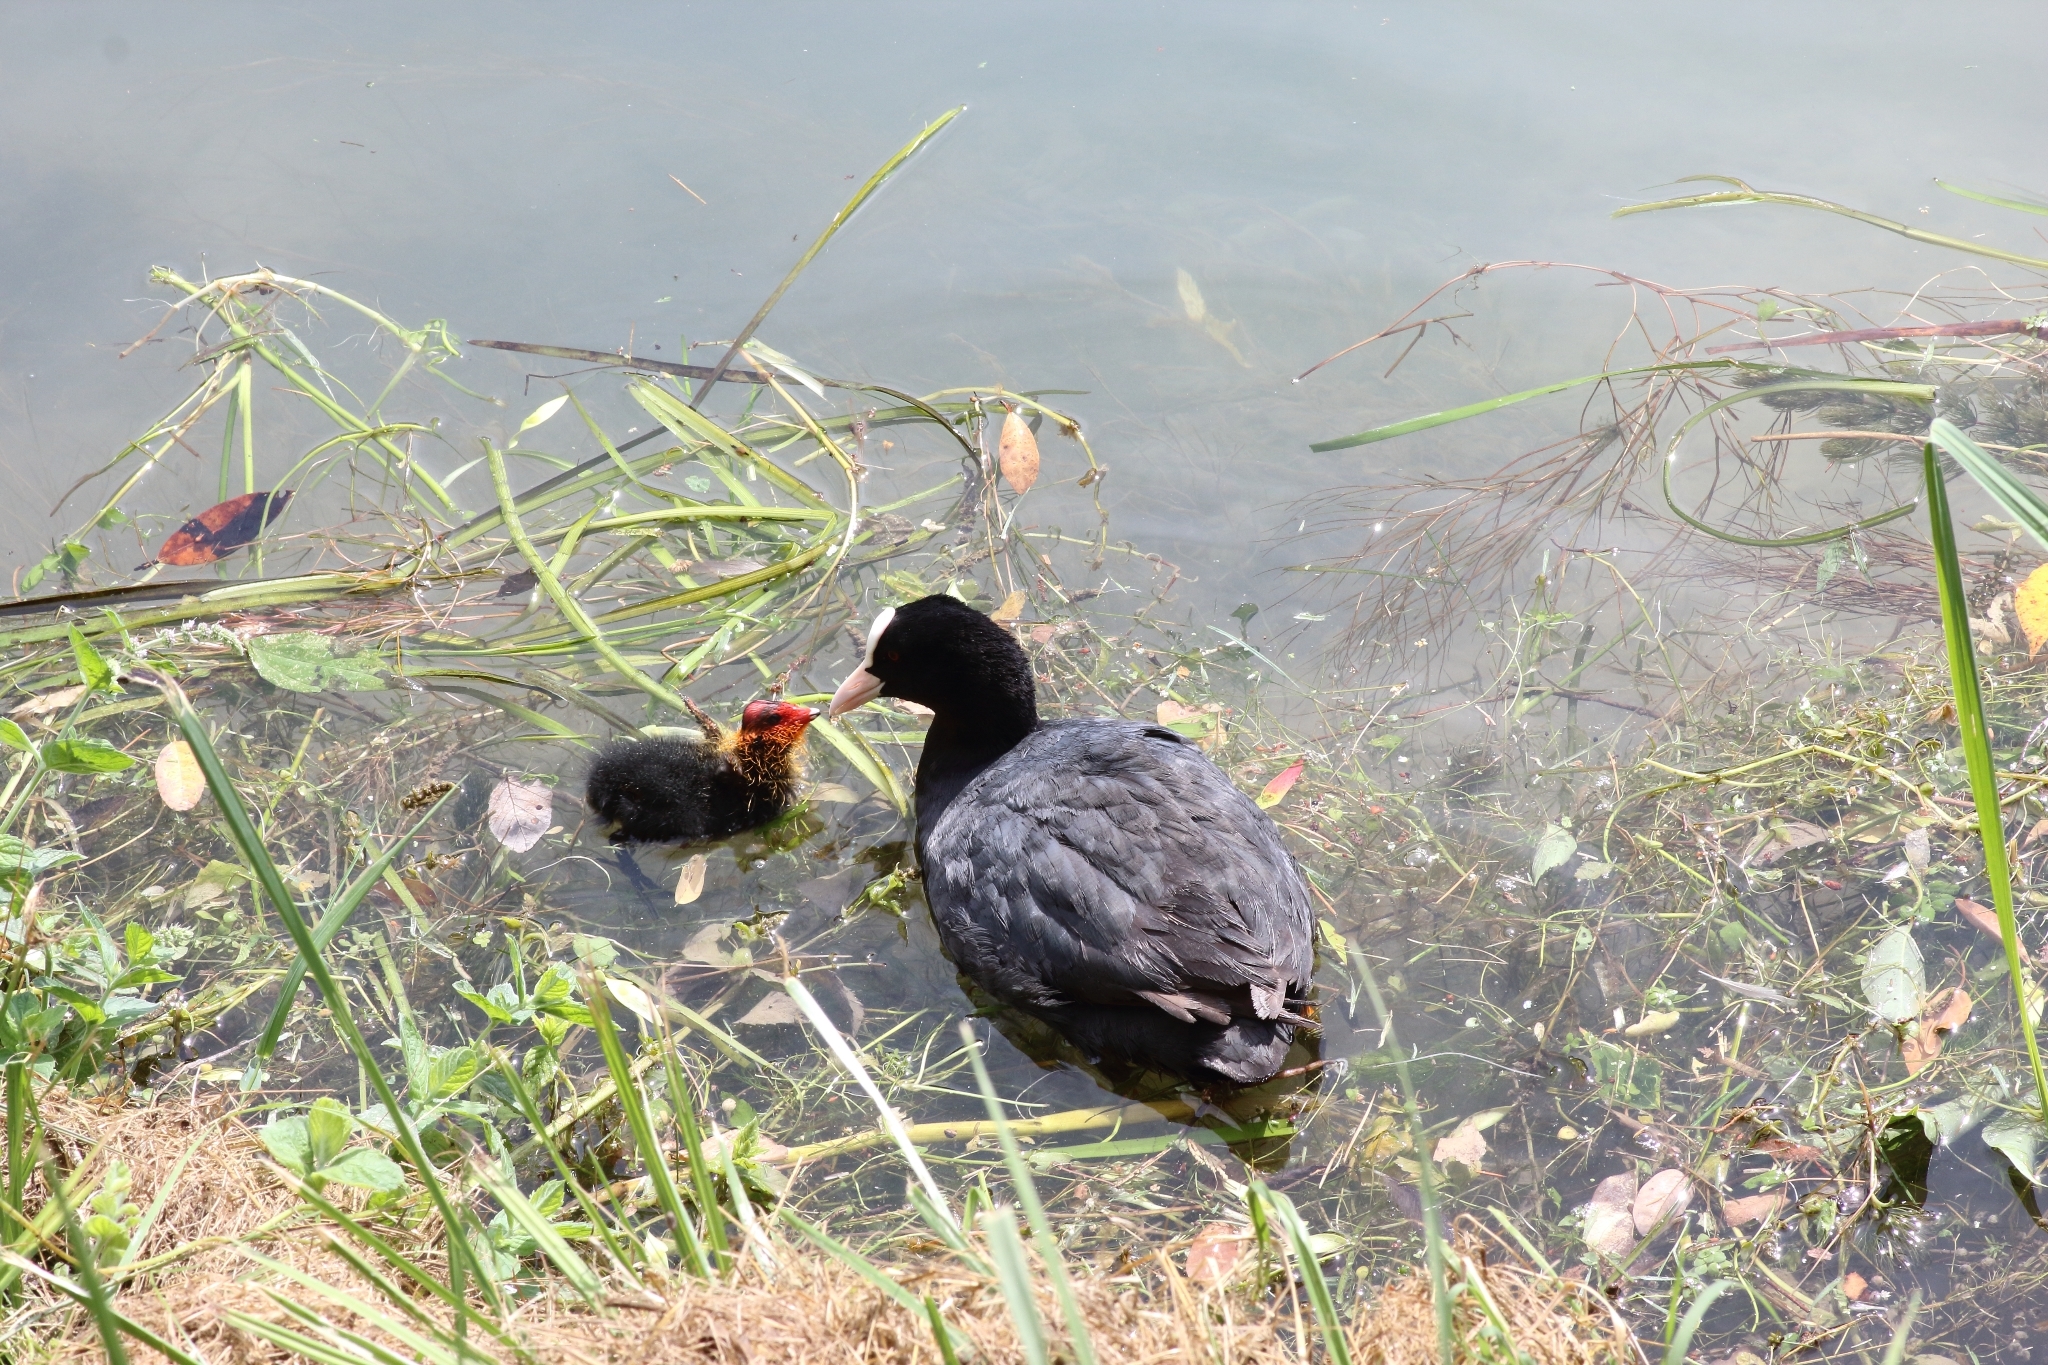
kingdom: Animalia
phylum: Chordata
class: Aves
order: Gruiformes
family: Rallidae
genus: Fulica
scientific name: Fulica atra
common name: Eurasian coot
